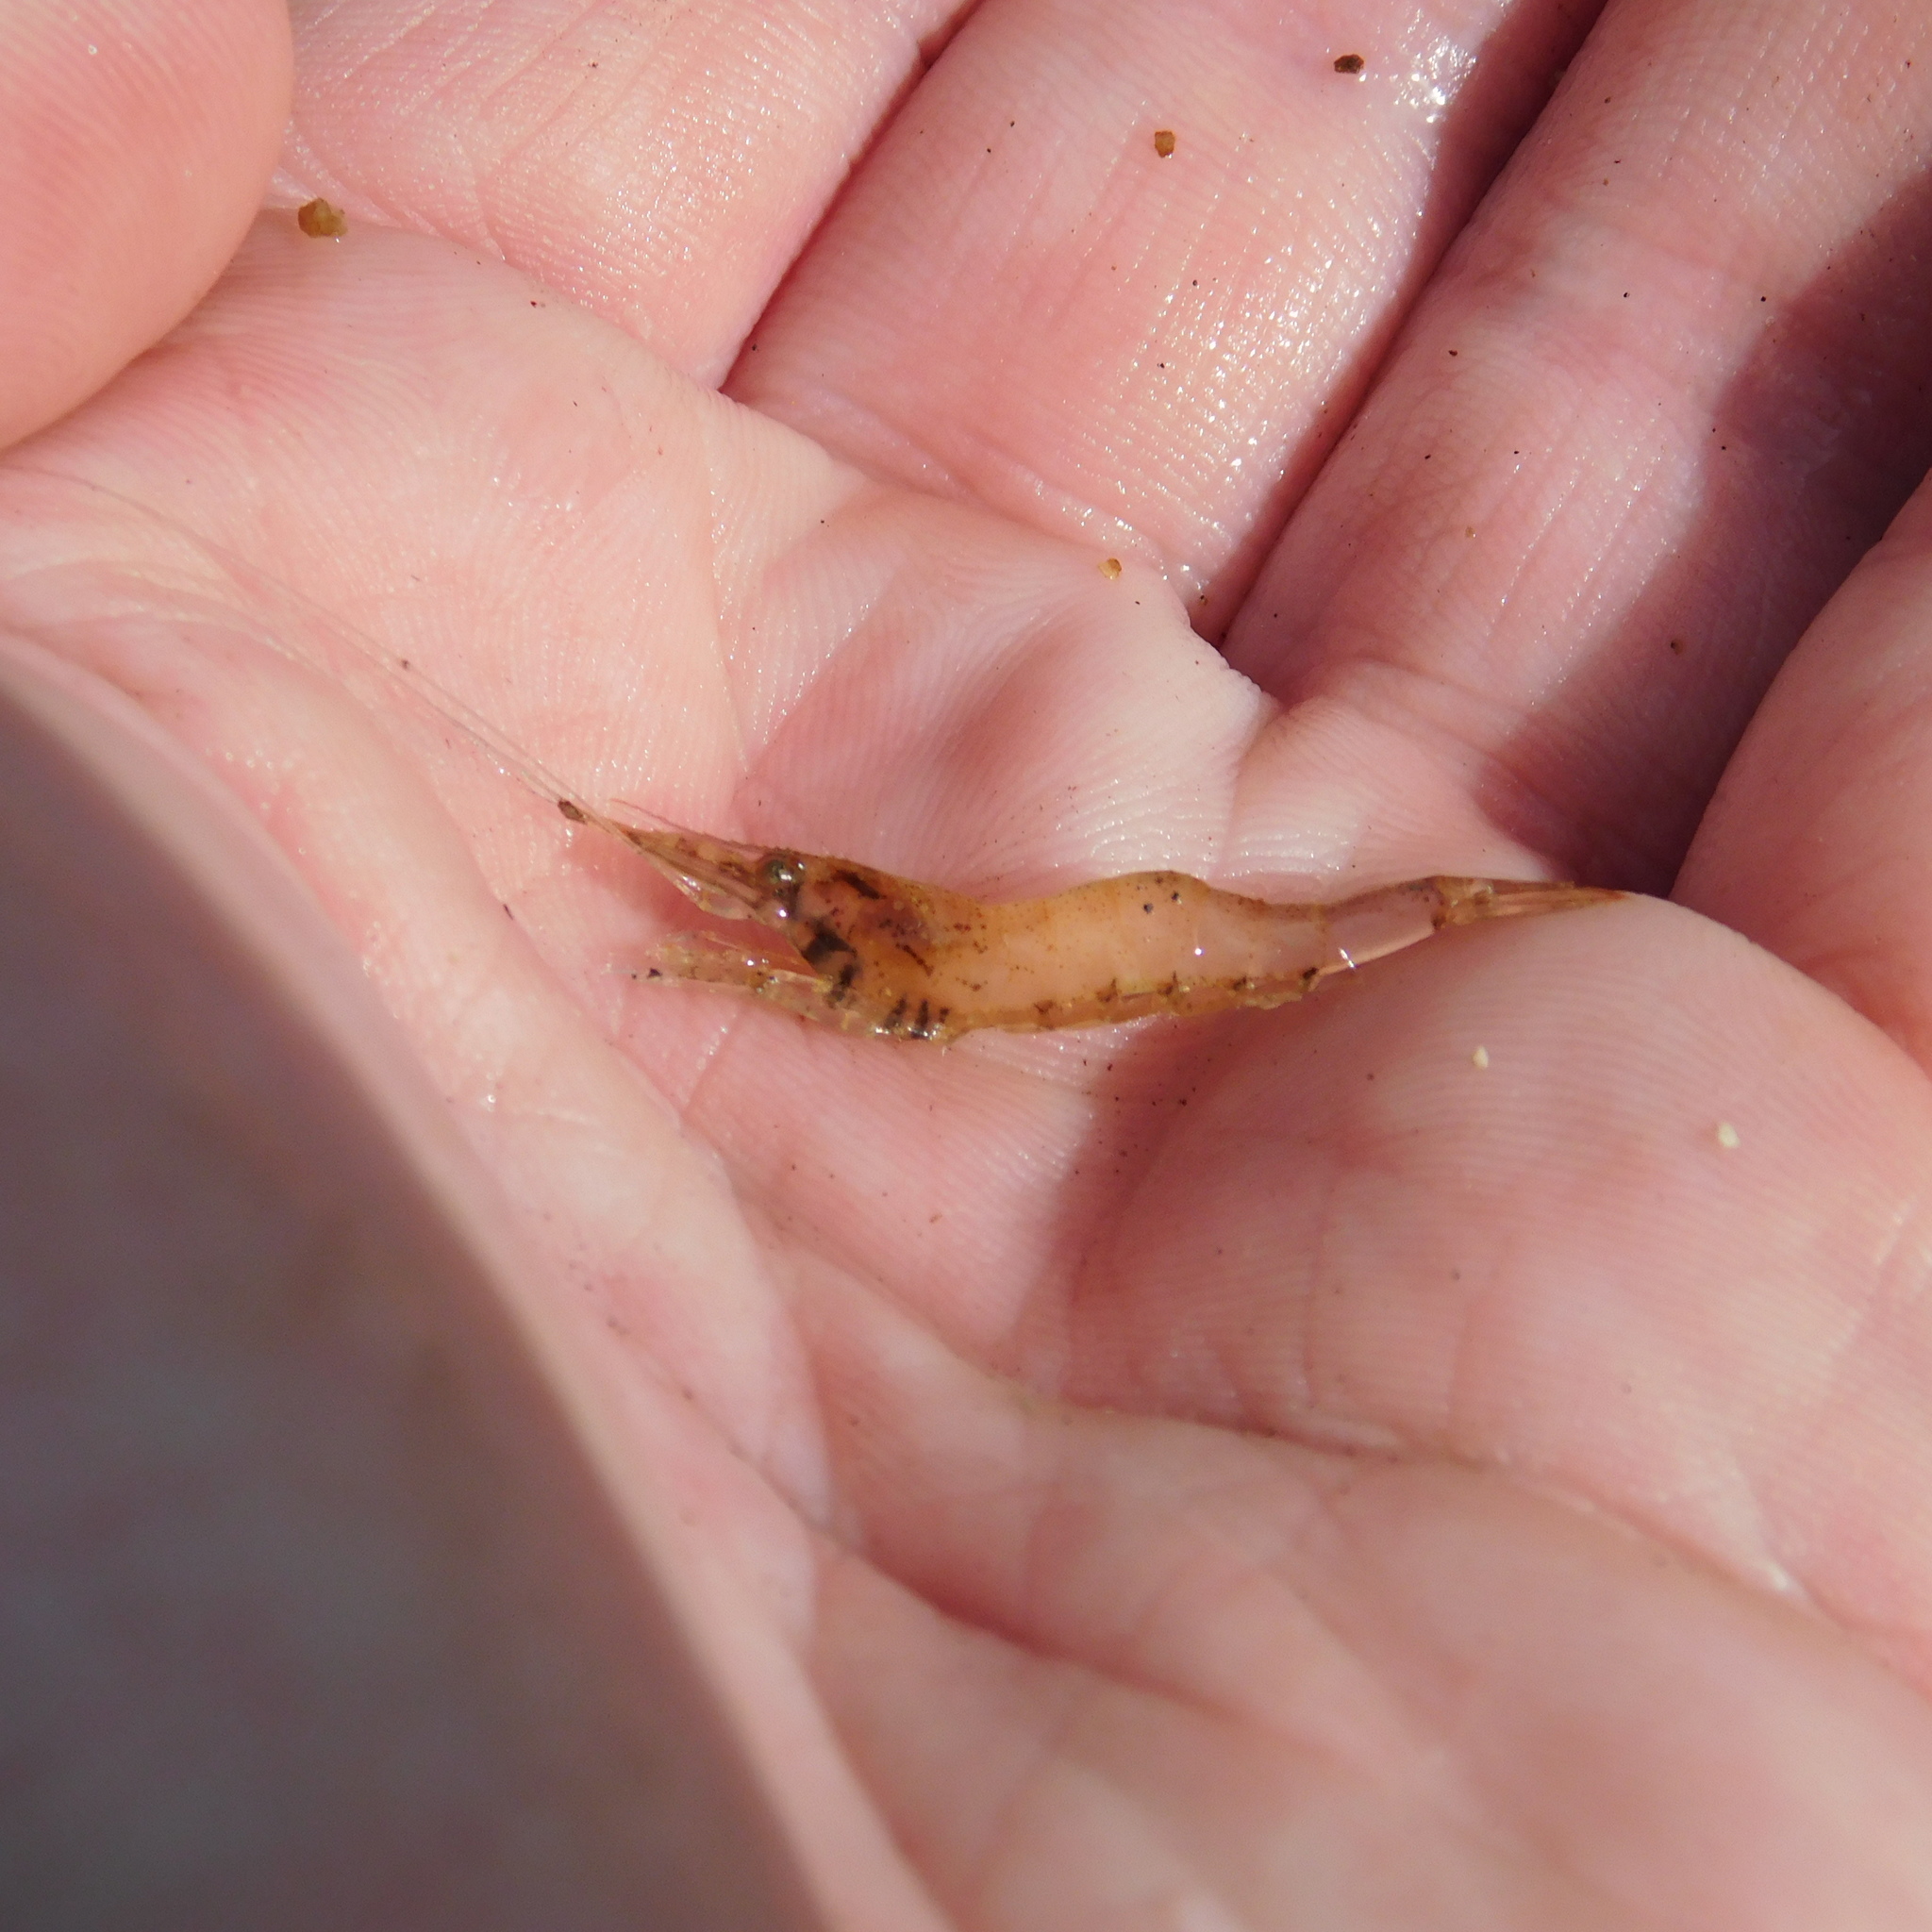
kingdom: Animalia
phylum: Arthropoda
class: Malacostraca
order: Decapoda
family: Atyidae
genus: Paratya
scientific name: Paratya curvirostris
